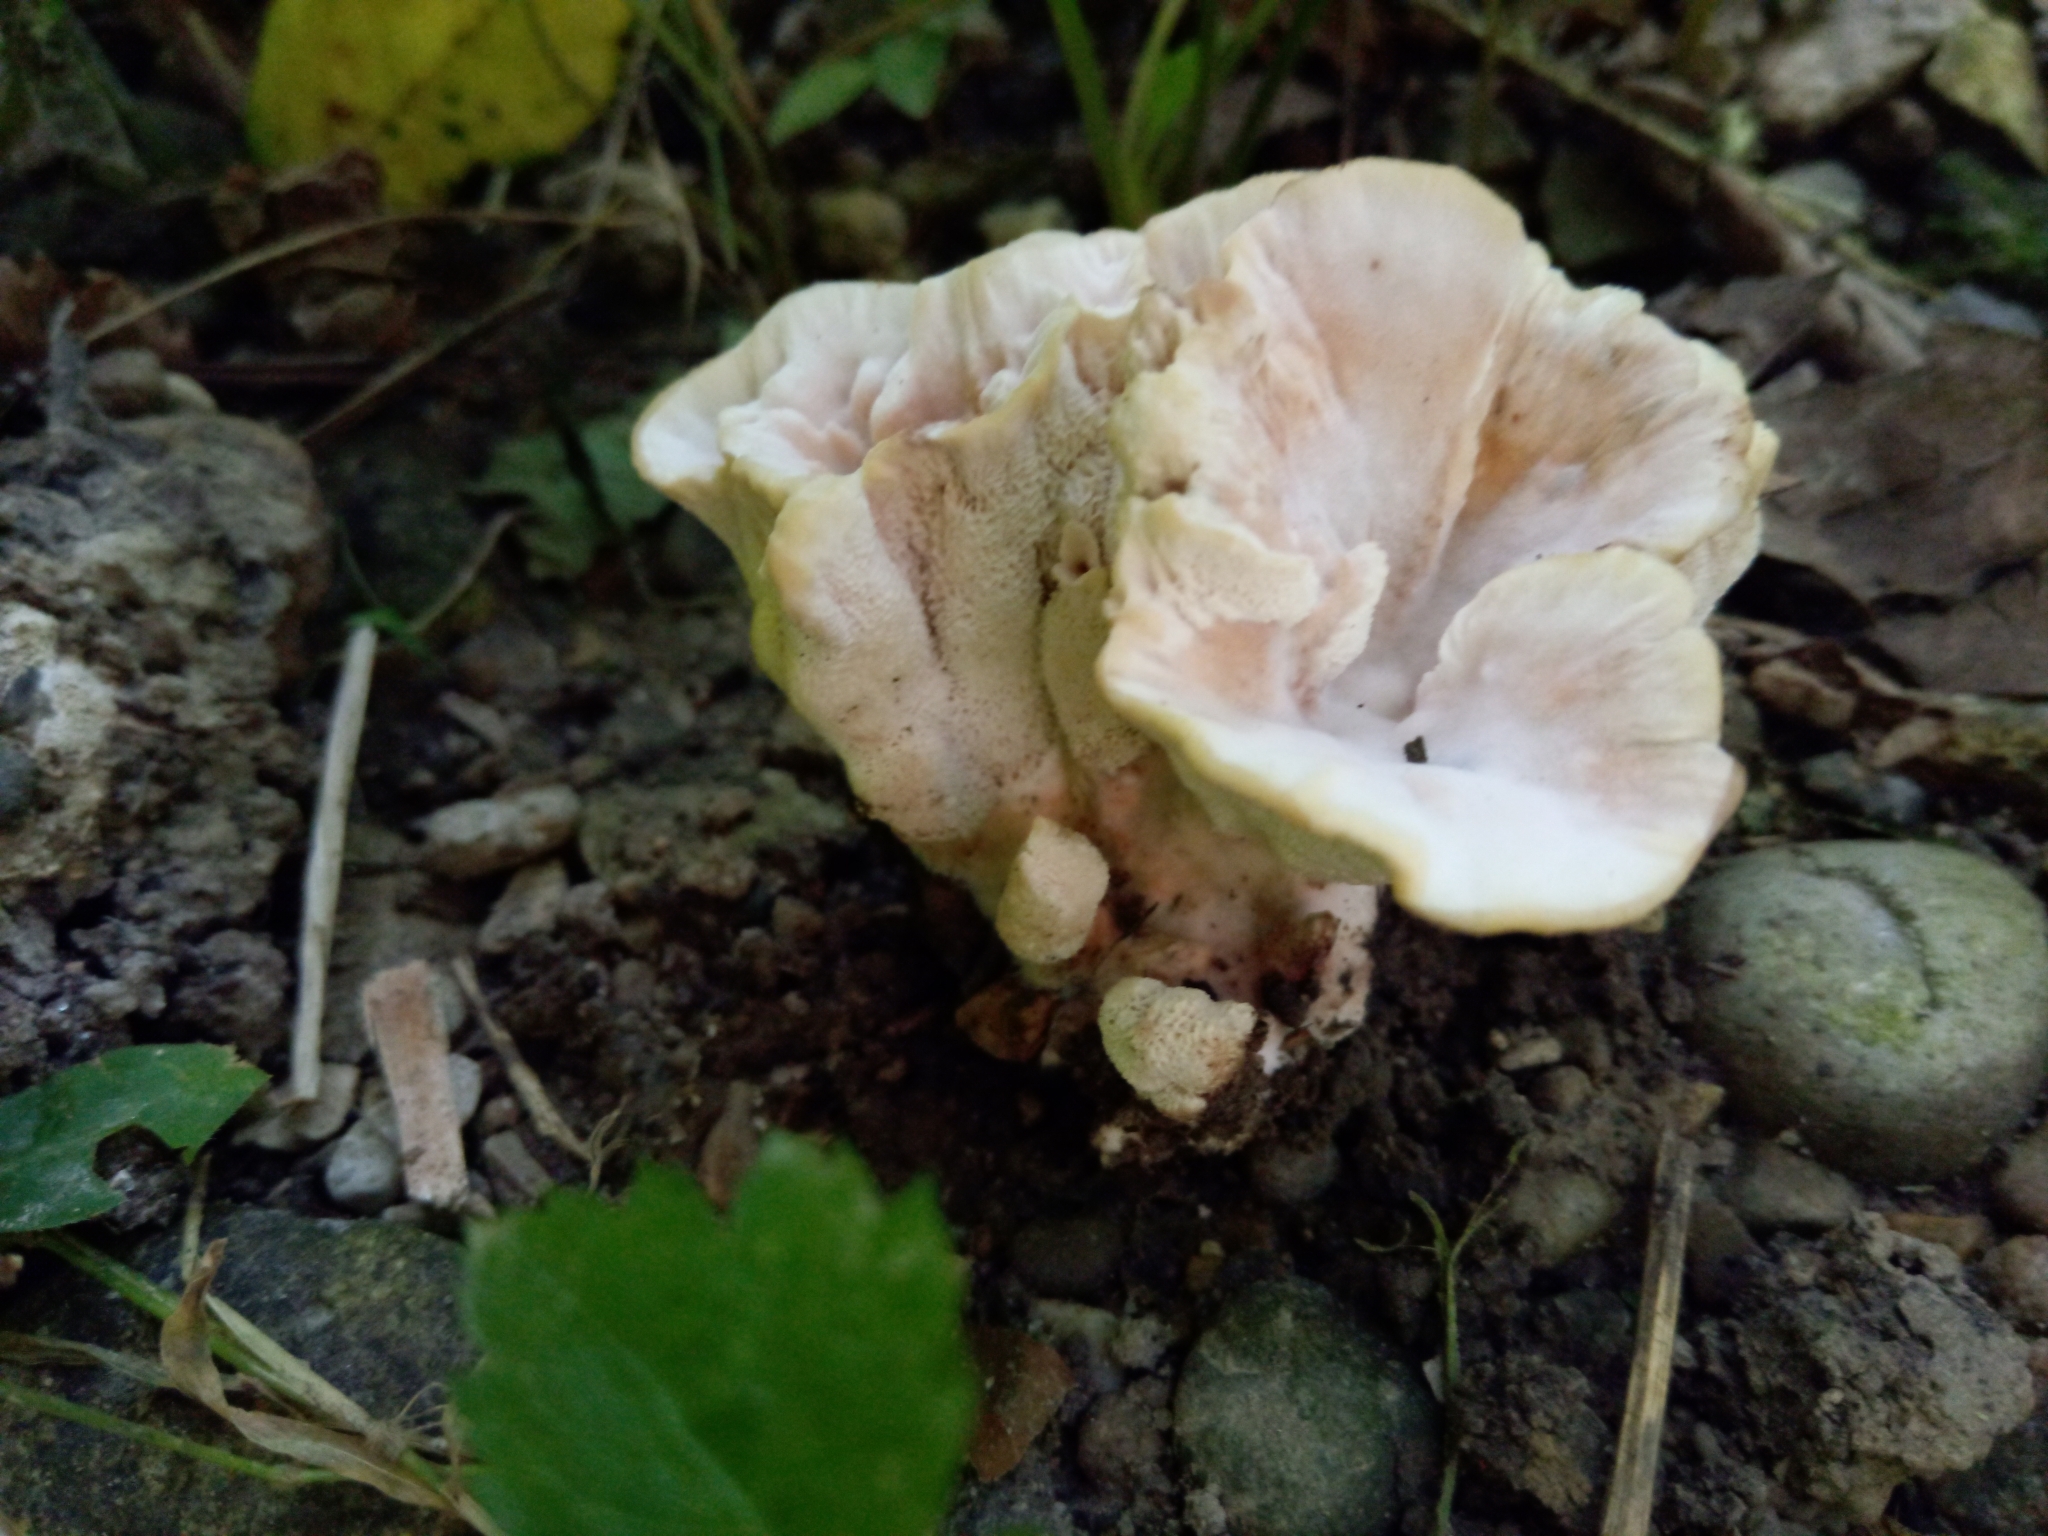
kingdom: Fungi
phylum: Basidiomycota
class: Agaricomycetes
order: Polyporales
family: Podoscyphaceae
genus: Abortiporus
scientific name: Abortiporus biennis
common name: Blushing rosette
